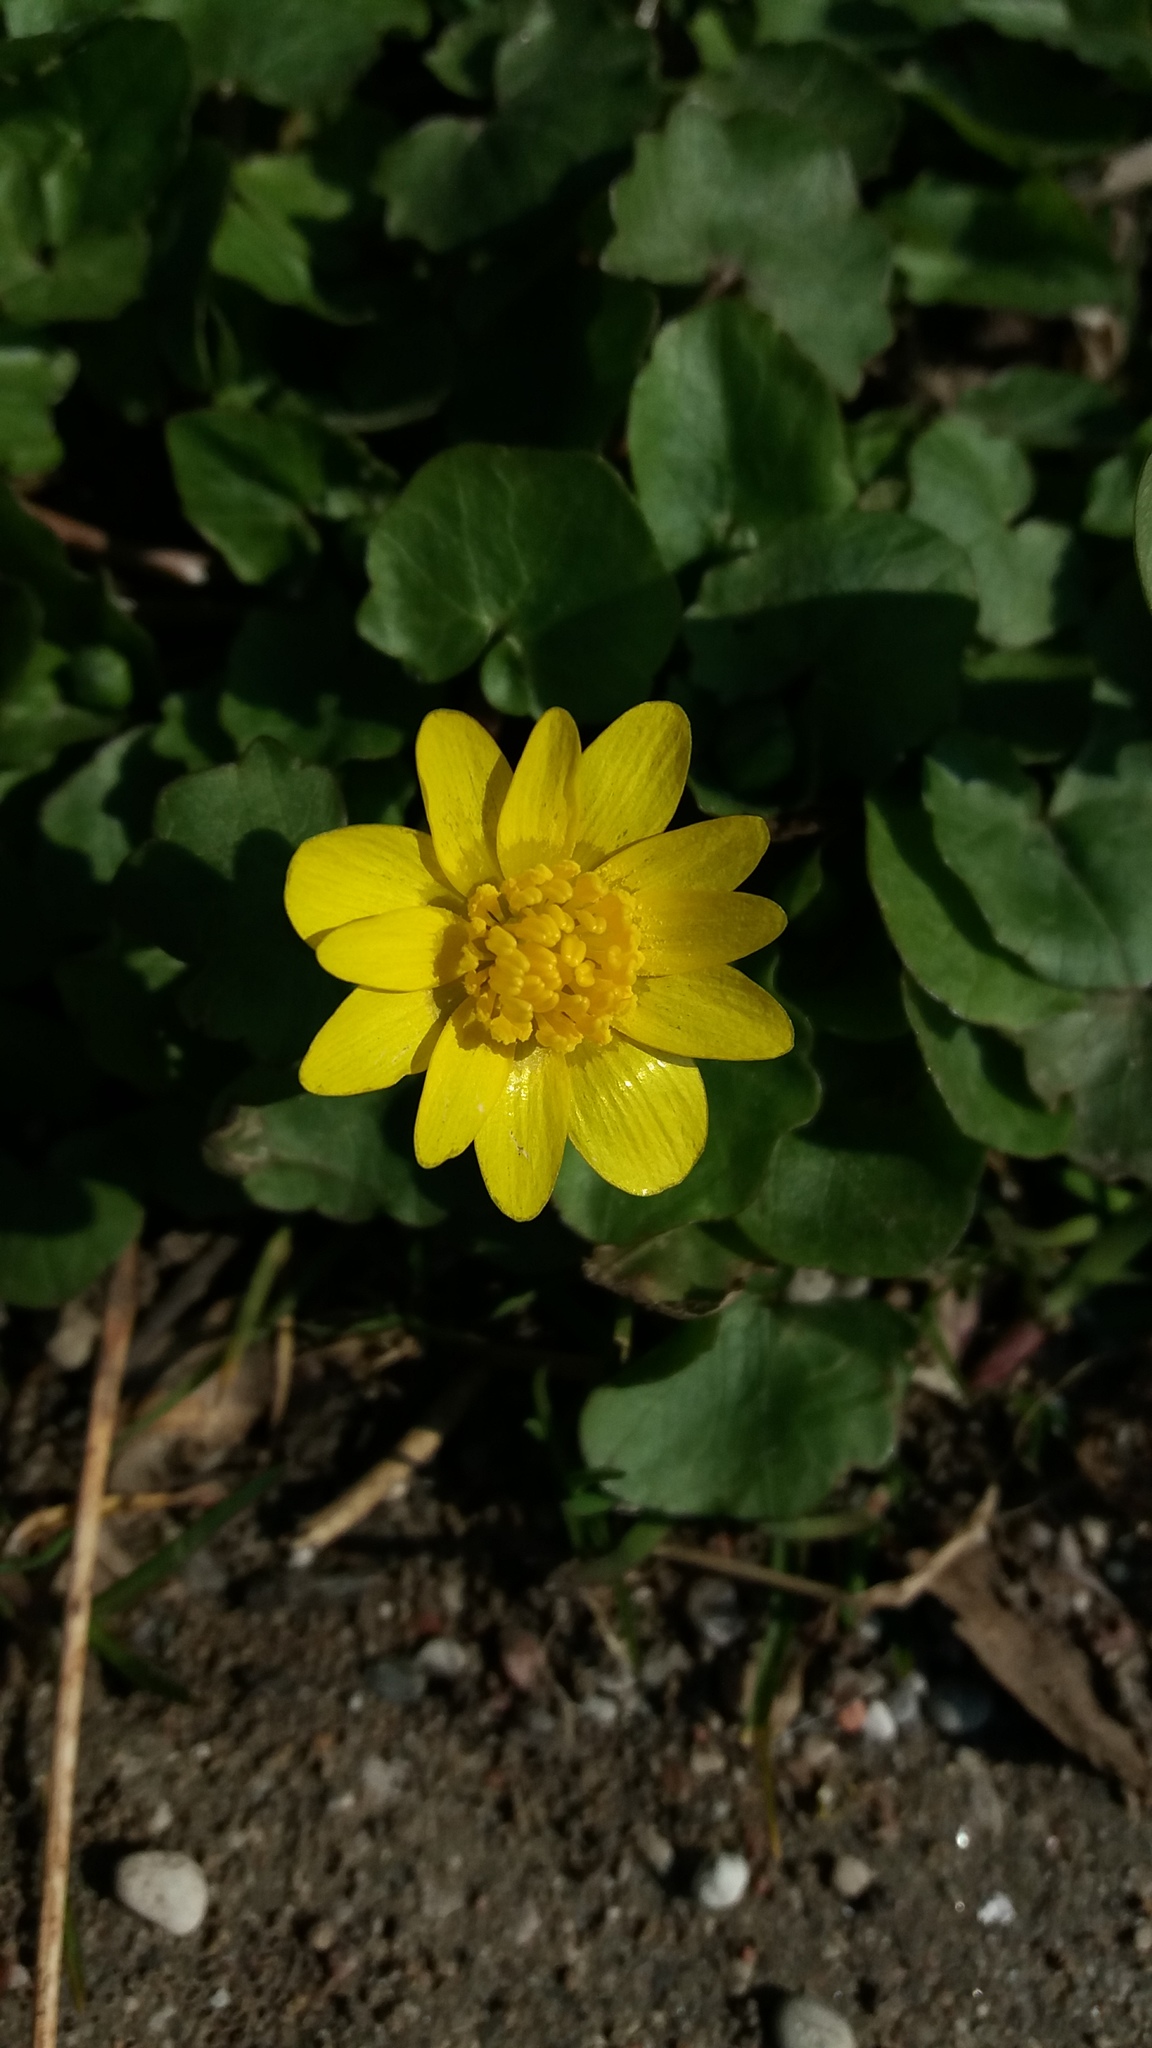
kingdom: Plantae
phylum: Tracheophyta
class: Magnoliopsida
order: Ranunculales
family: Ranunculaceae
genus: Ficaria
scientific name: Ficaria verna
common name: Lesser celandine
